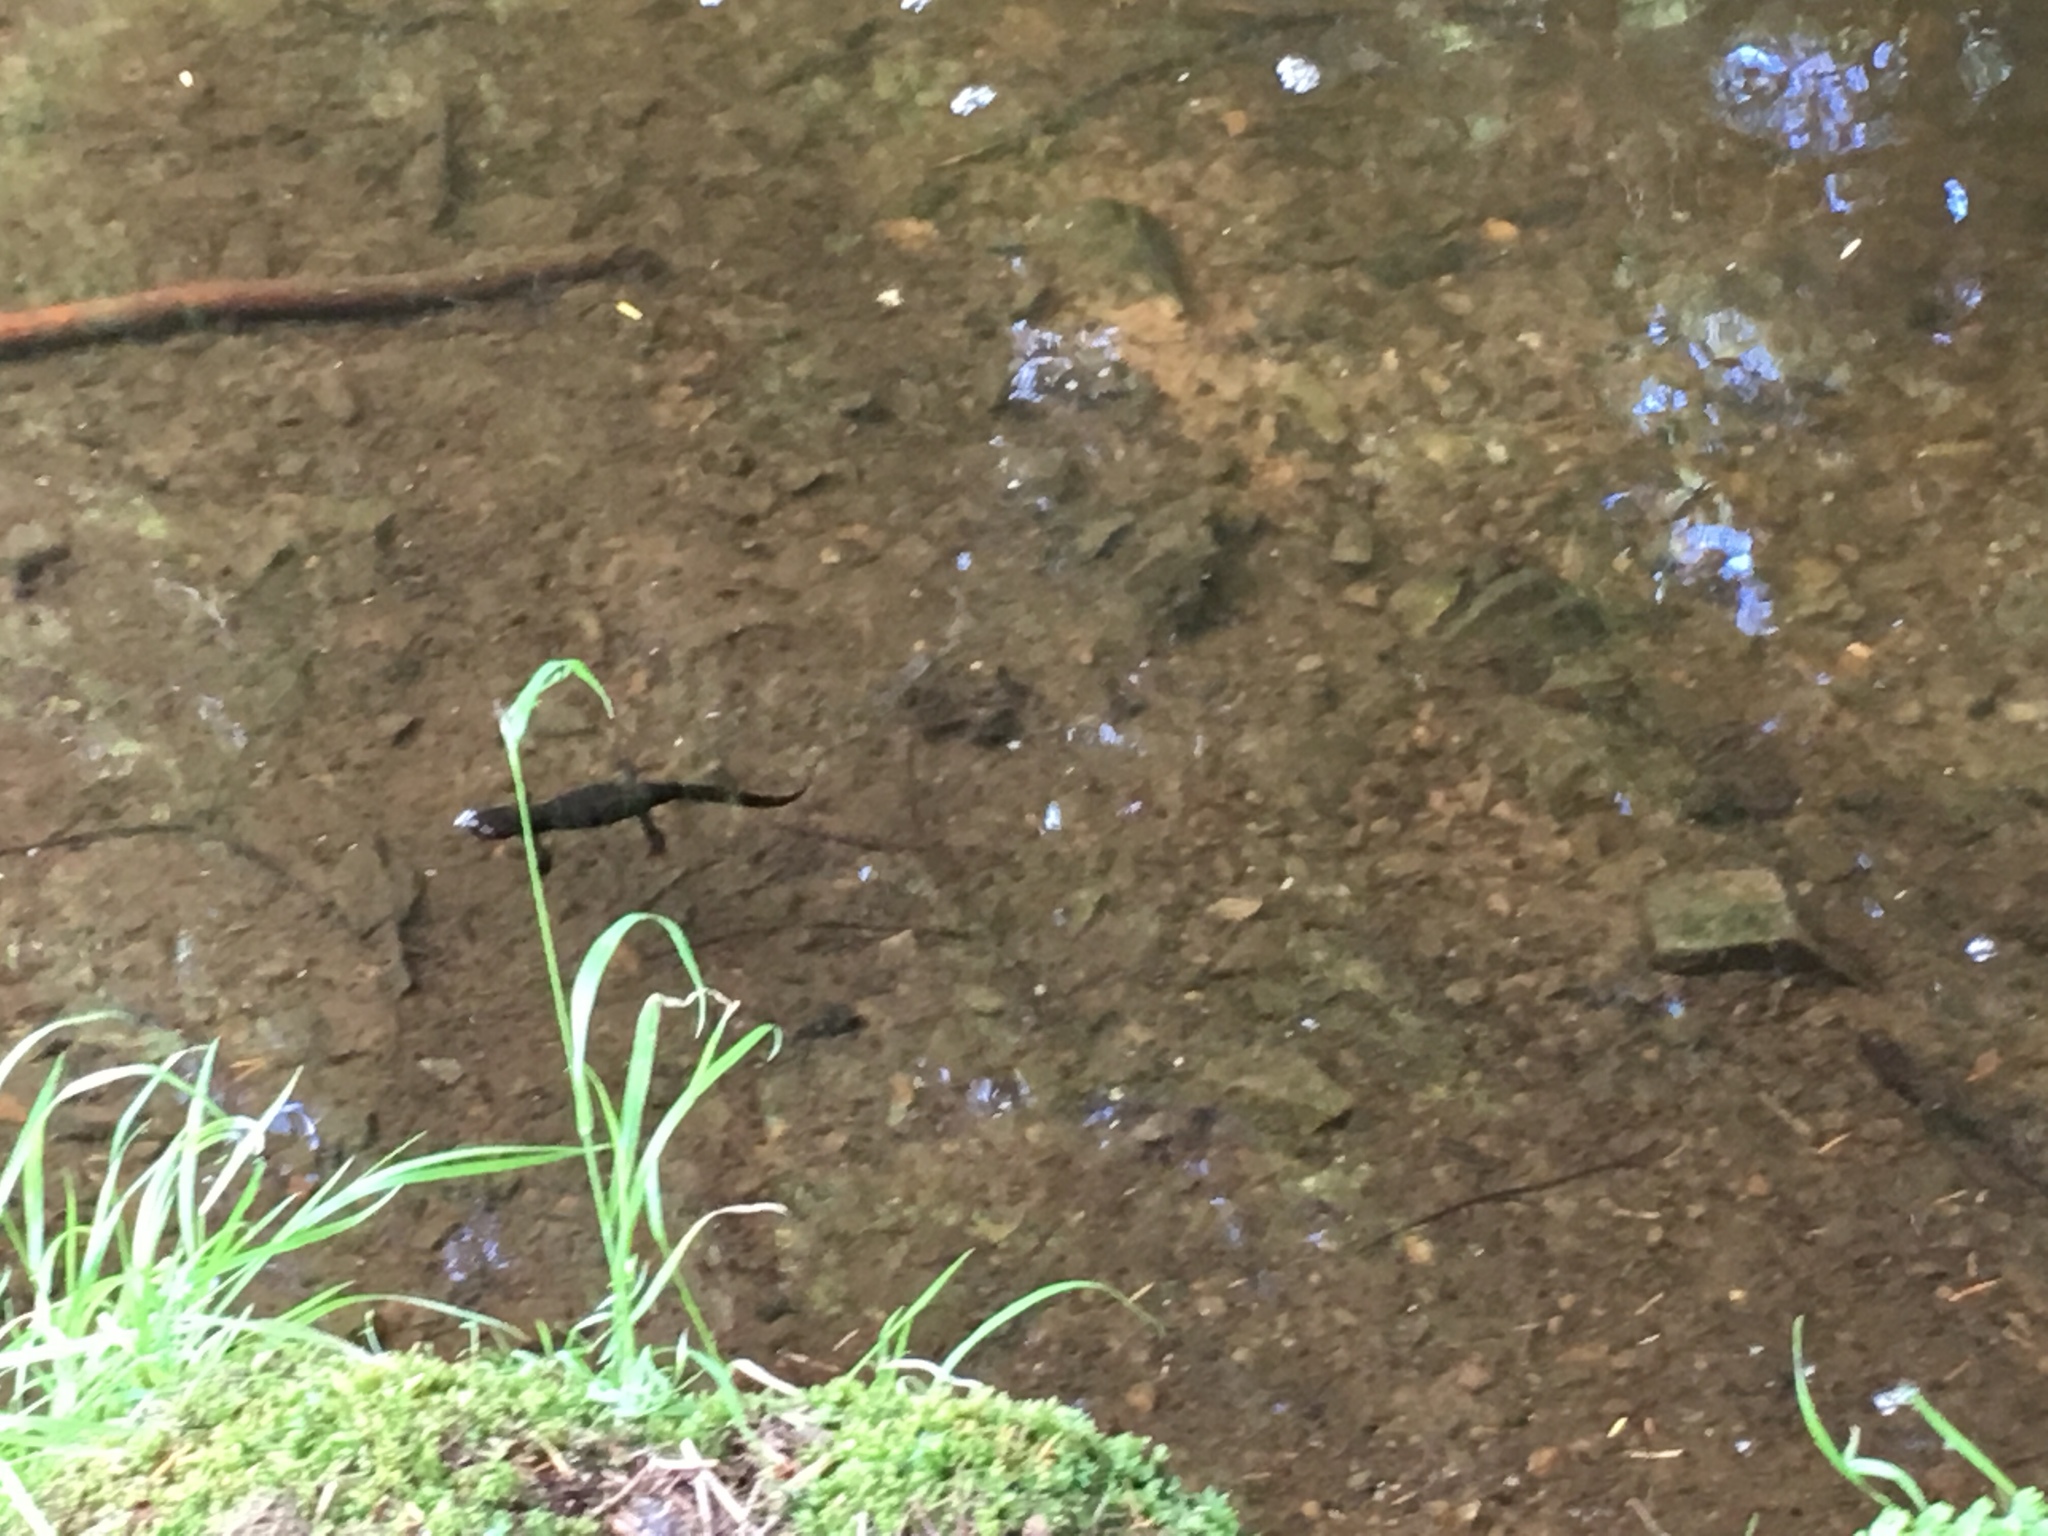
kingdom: Animalia
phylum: Chordata
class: Amphibia
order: Caudata
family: Salamandridae
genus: Taricha
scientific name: Taricha granulosa
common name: Roughskin newt
